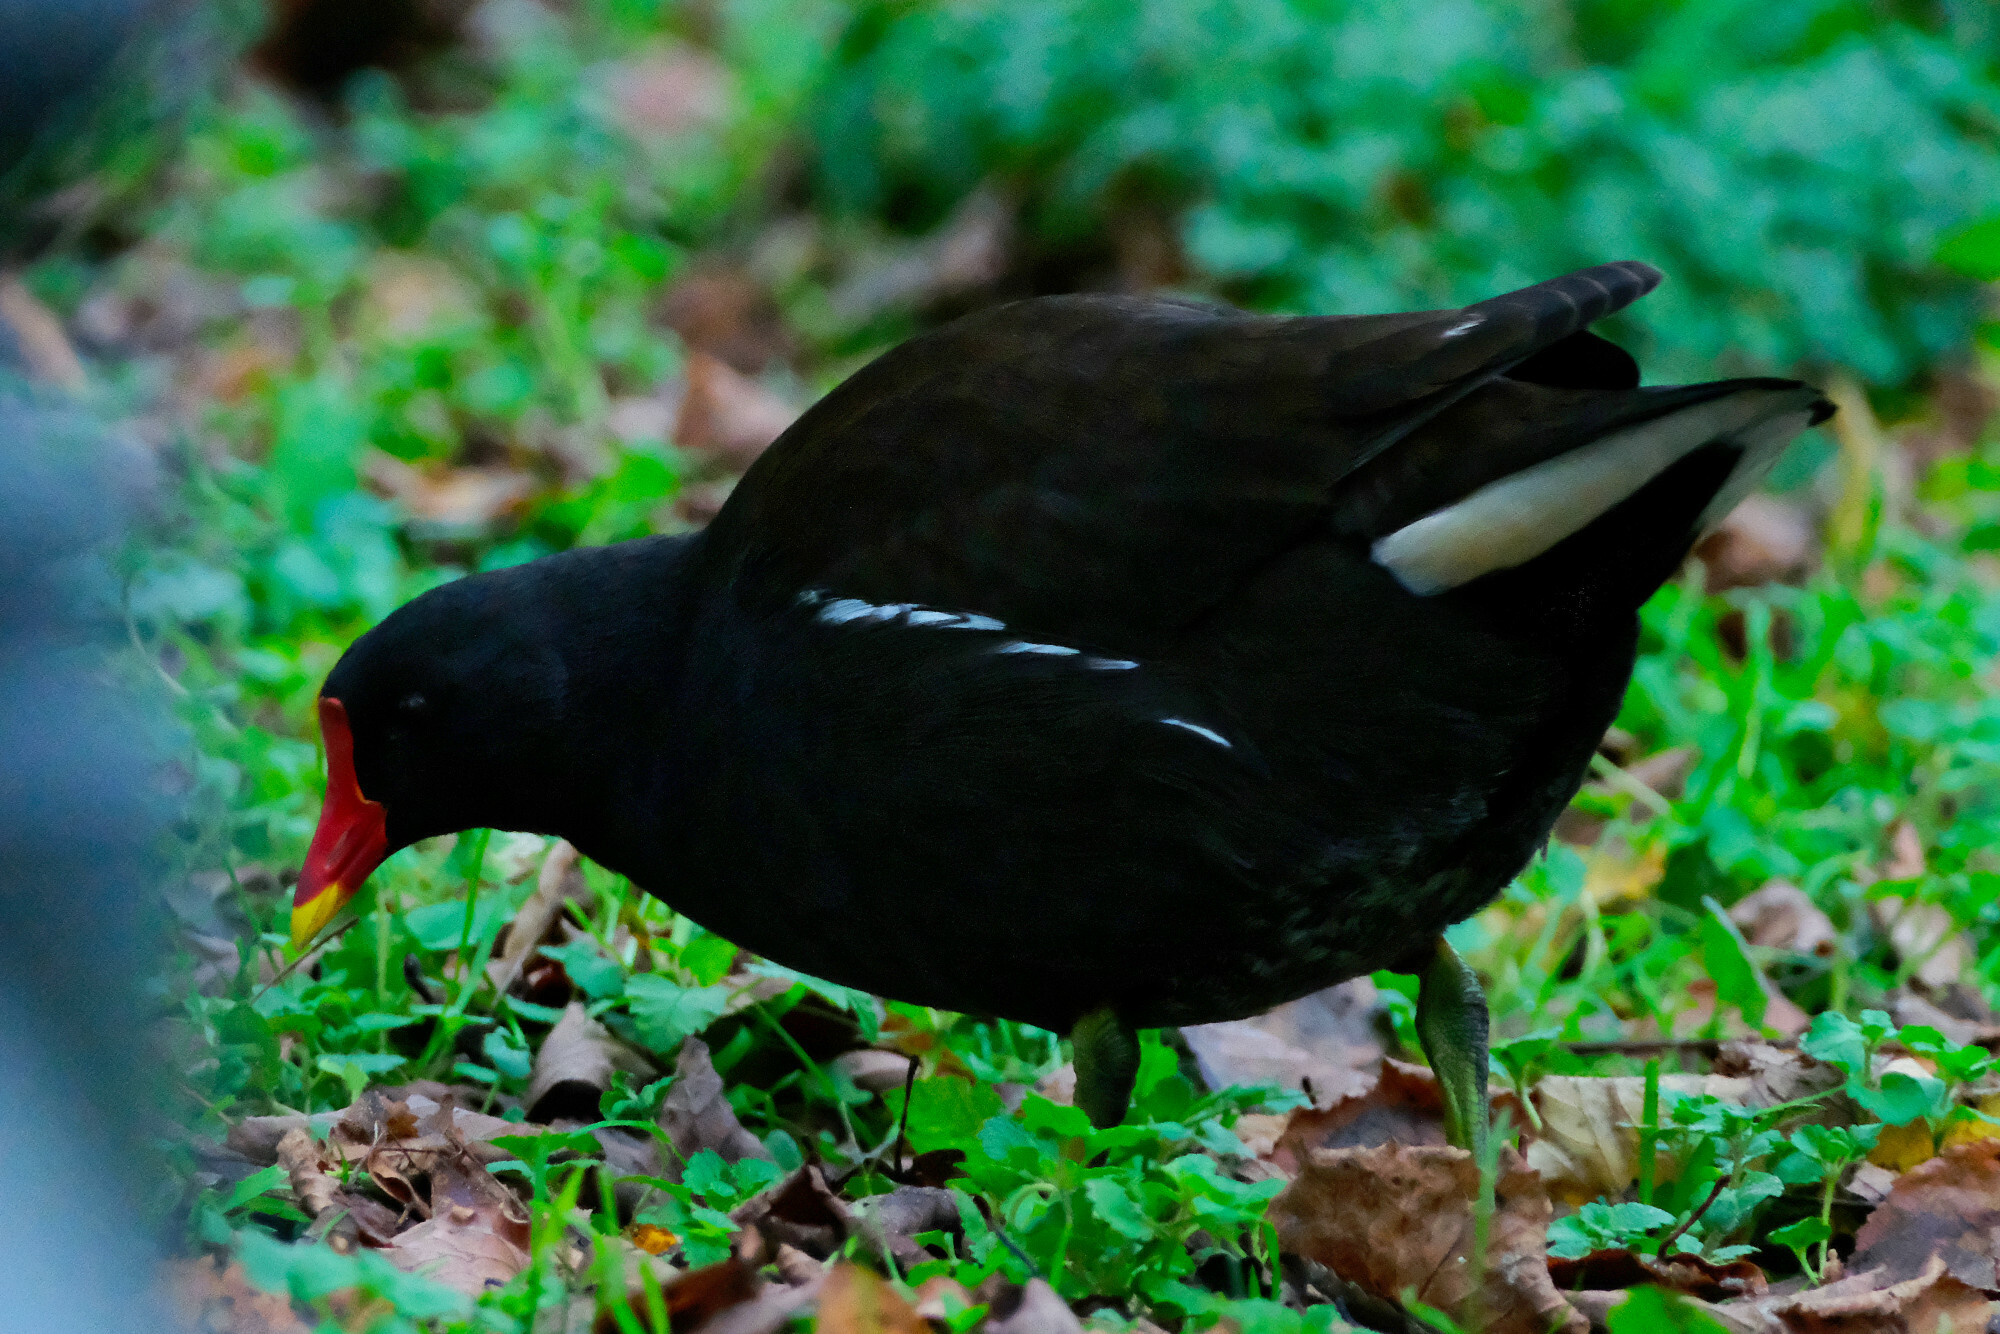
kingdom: Animalia
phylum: Chordata
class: Aves
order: Gruiformes
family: Rallidae
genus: Gallinula
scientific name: Gallinula chloropus
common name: Common moorhen
